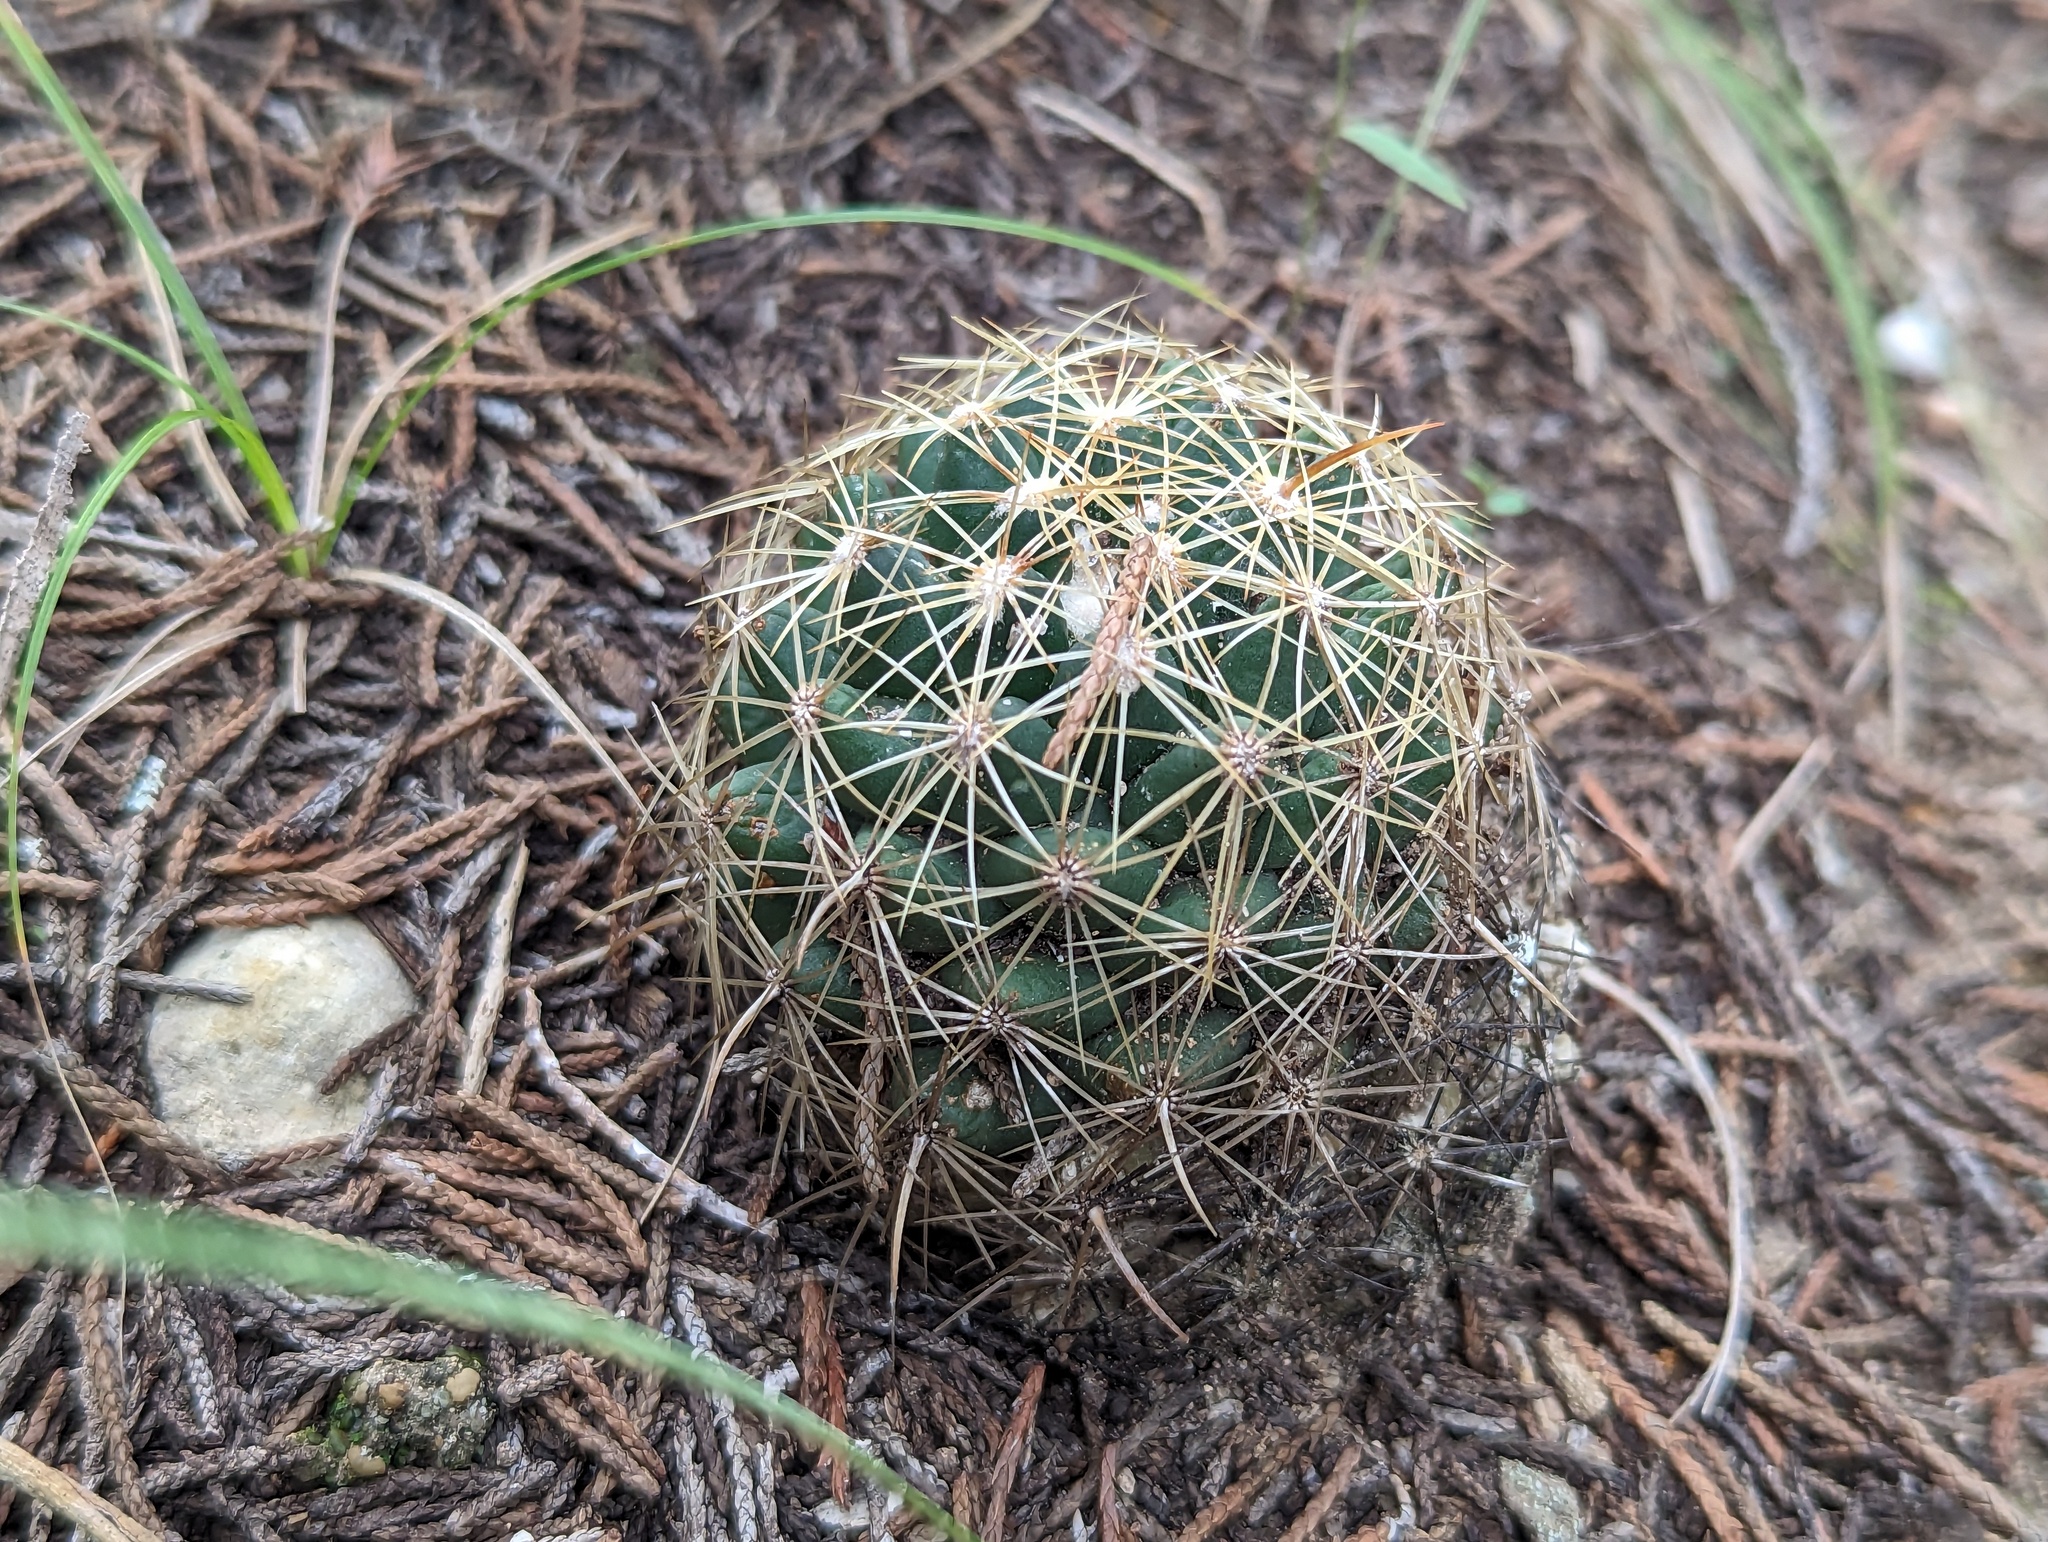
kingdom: Plantae
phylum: Tracheophyta
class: Magnoliopsida
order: Caryophyllales
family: Cactaceae
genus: Coryphantha
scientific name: Coryphantha sulcata
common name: Finger cactus
